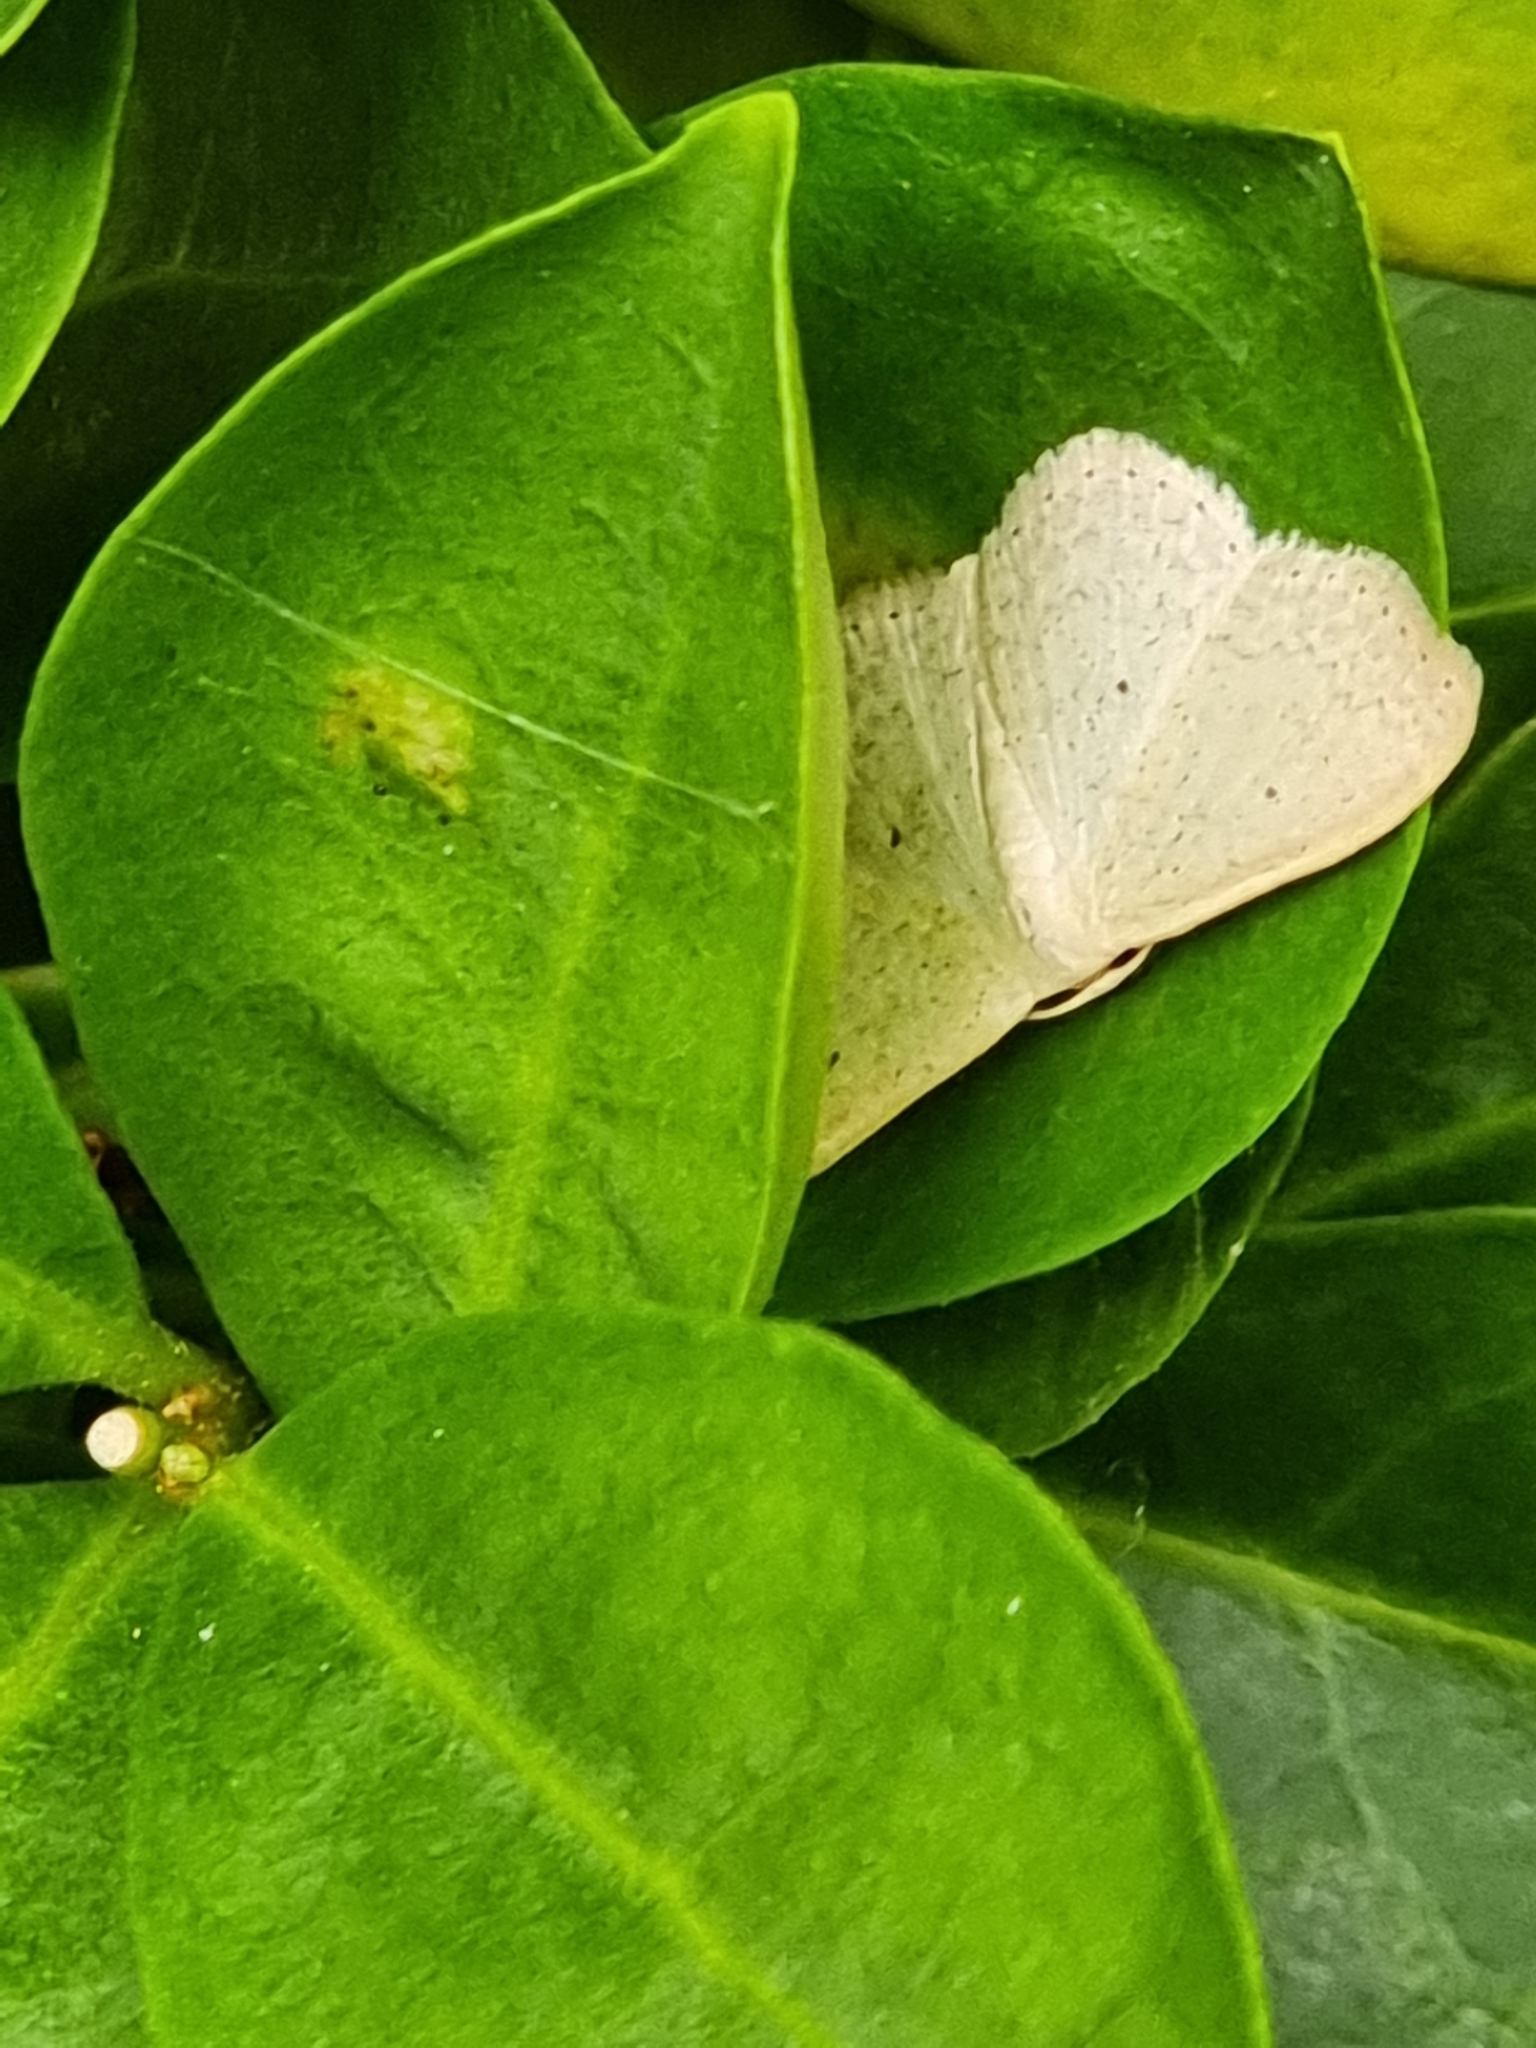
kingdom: Animalia
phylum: Arthropoda
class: Insecta
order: Lepidoptera
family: Geometridae
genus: Scopula
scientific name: Scopula optivata
